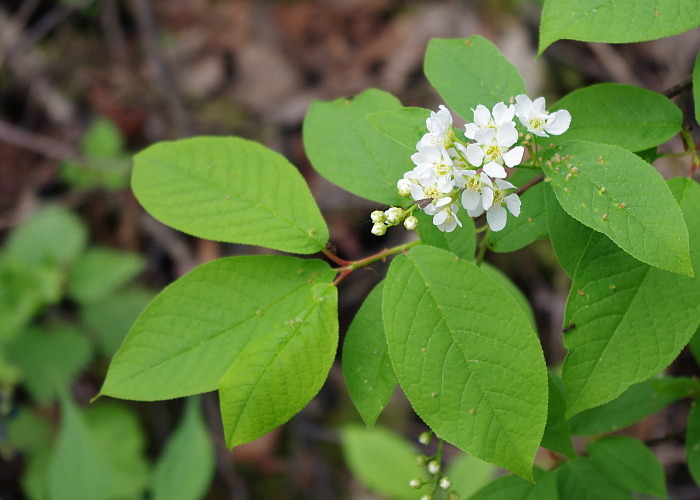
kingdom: Plantae
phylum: Tracheophyta
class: Magnoliopsida
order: Rosales
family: Rosaceae
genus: Prunus
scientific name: Prunus padus
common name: Bird cherry
